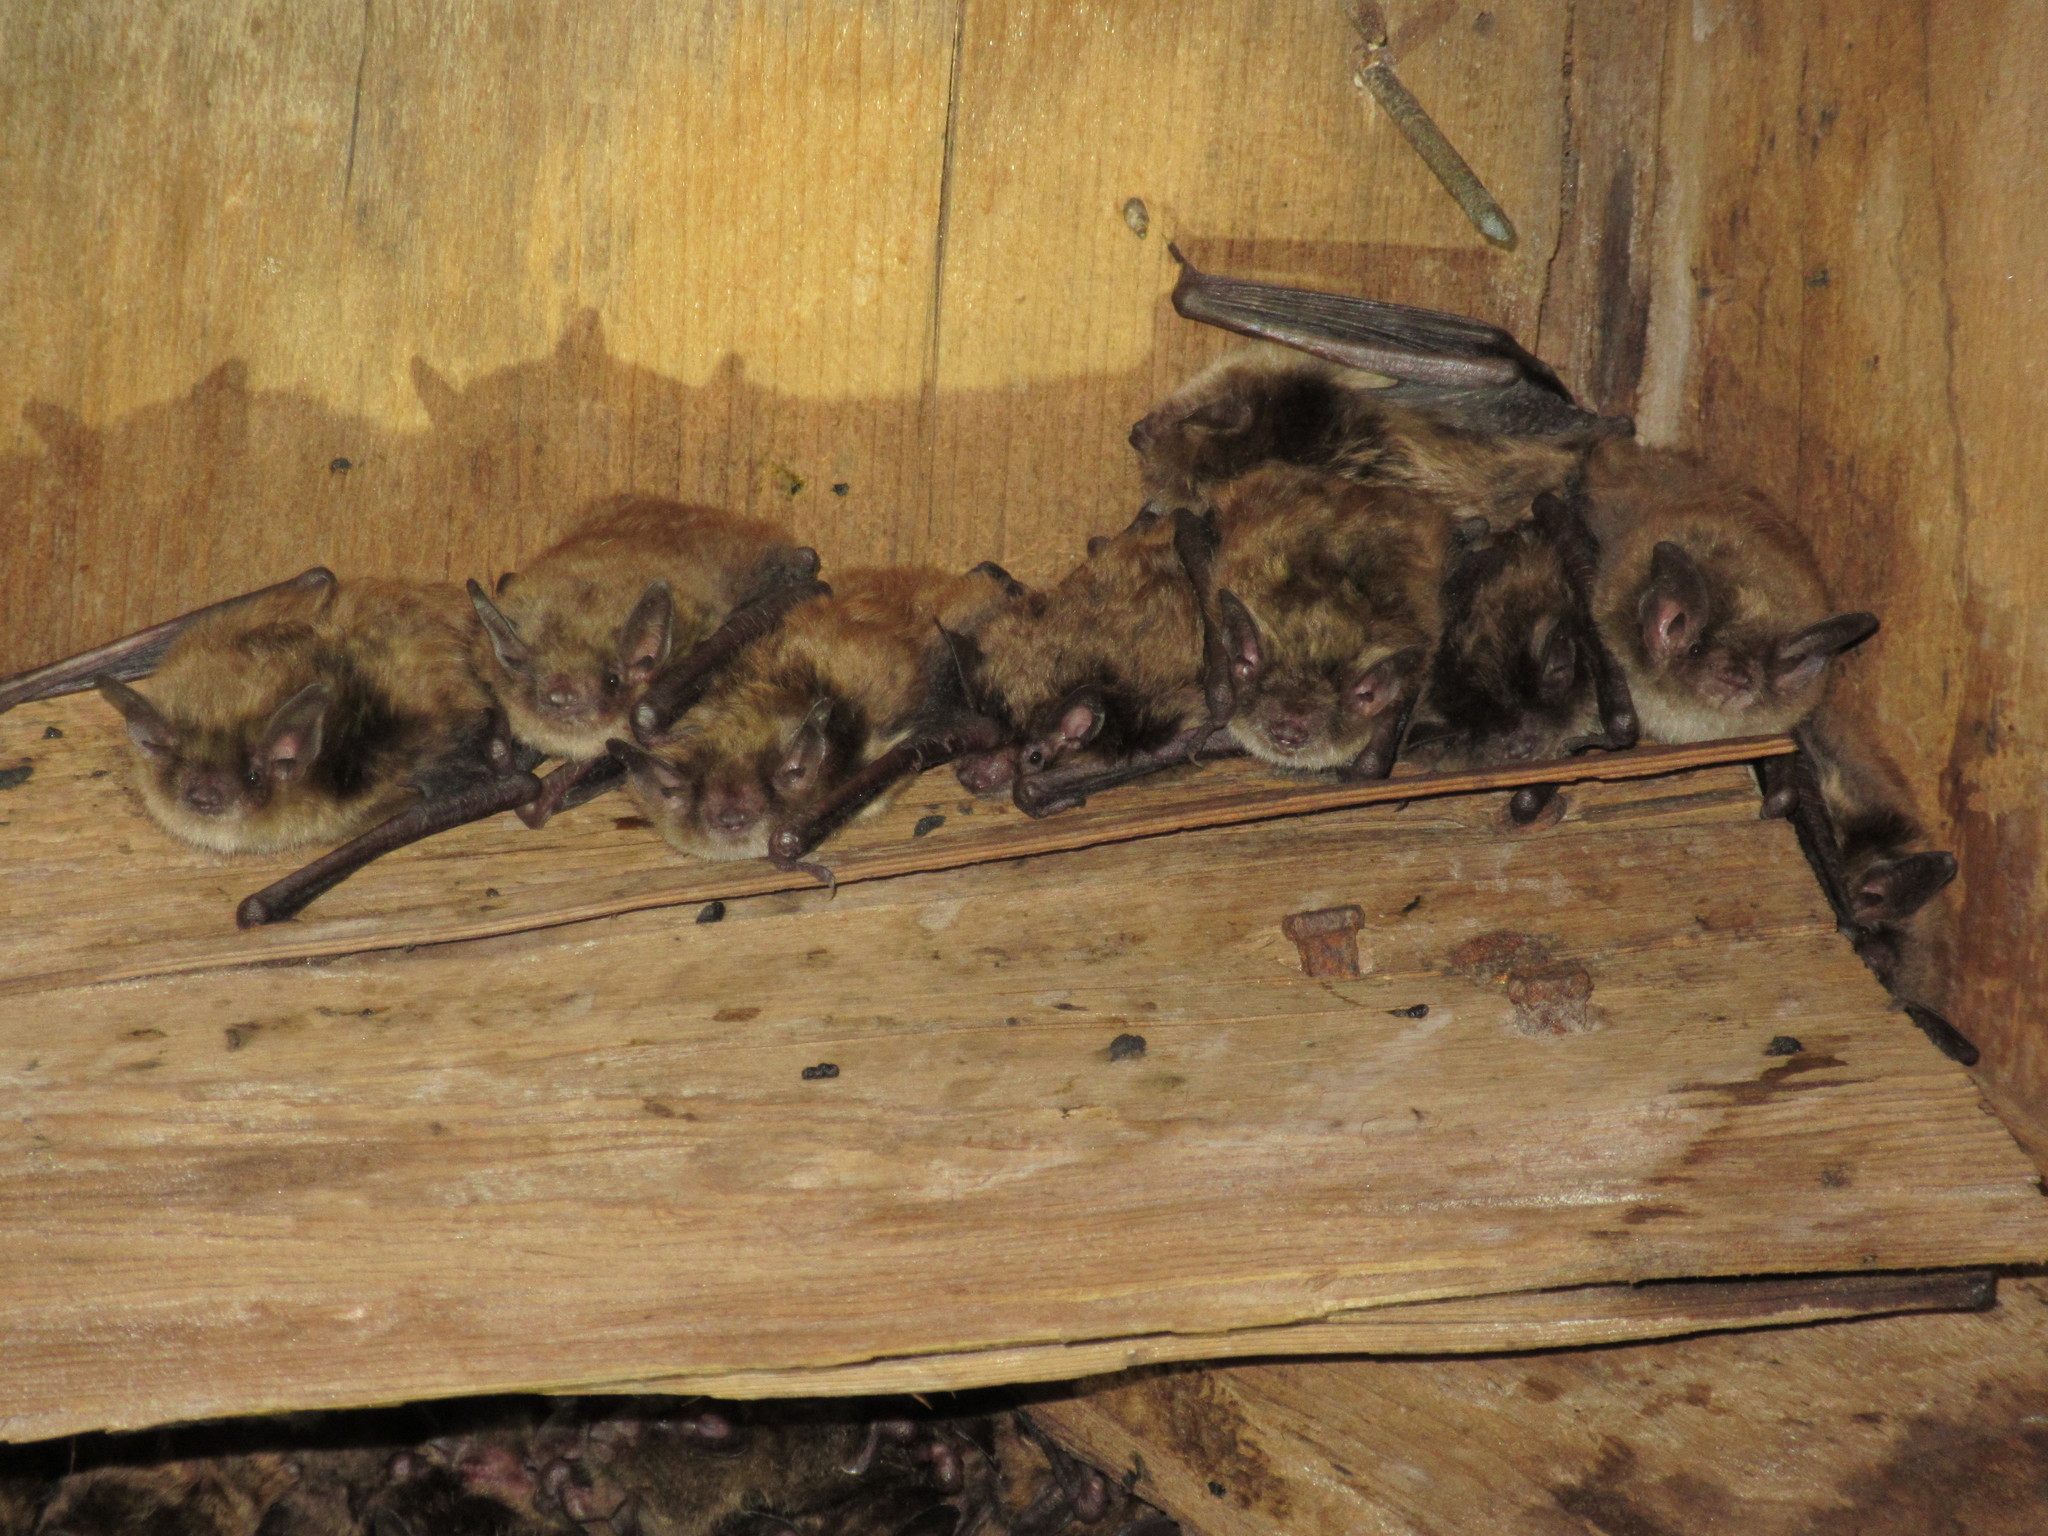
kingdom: Animalia
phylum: Chordata
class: Mammalia
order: Chiroptera
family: Vespertilionidae
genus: Myotis
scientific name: Myotis lucifugus
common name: Little brown bat
